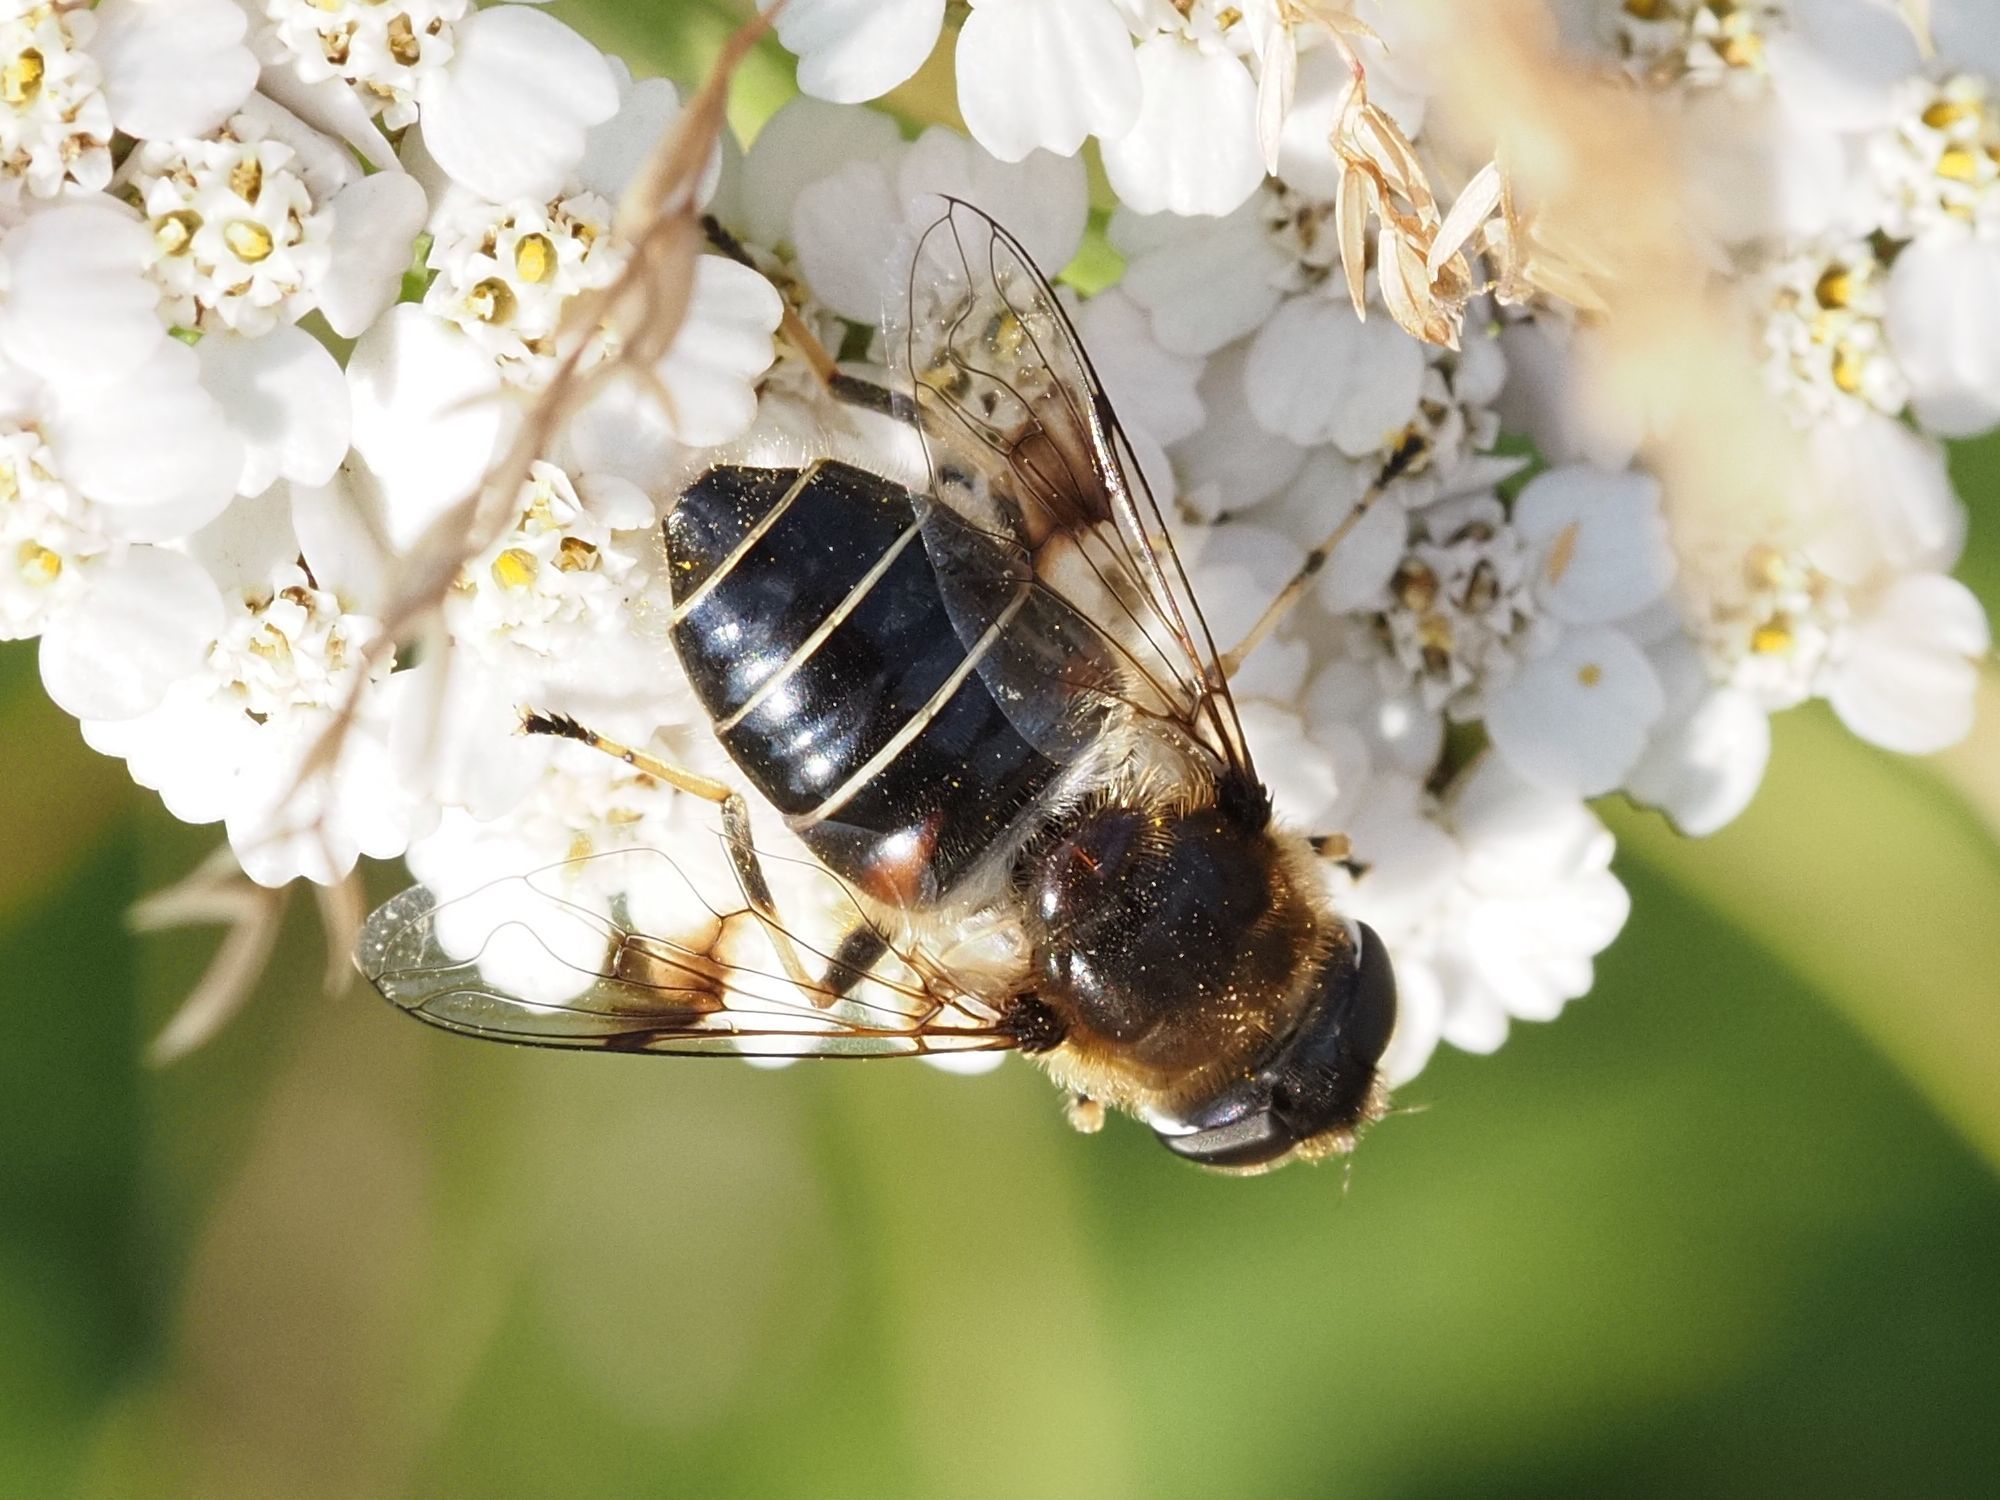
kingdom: Animalia
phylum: Arthropoda
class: Insecta
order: Diptera
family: Syrphidae
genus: Eristalis
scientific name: Eristalis rupium
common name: Hover fly
